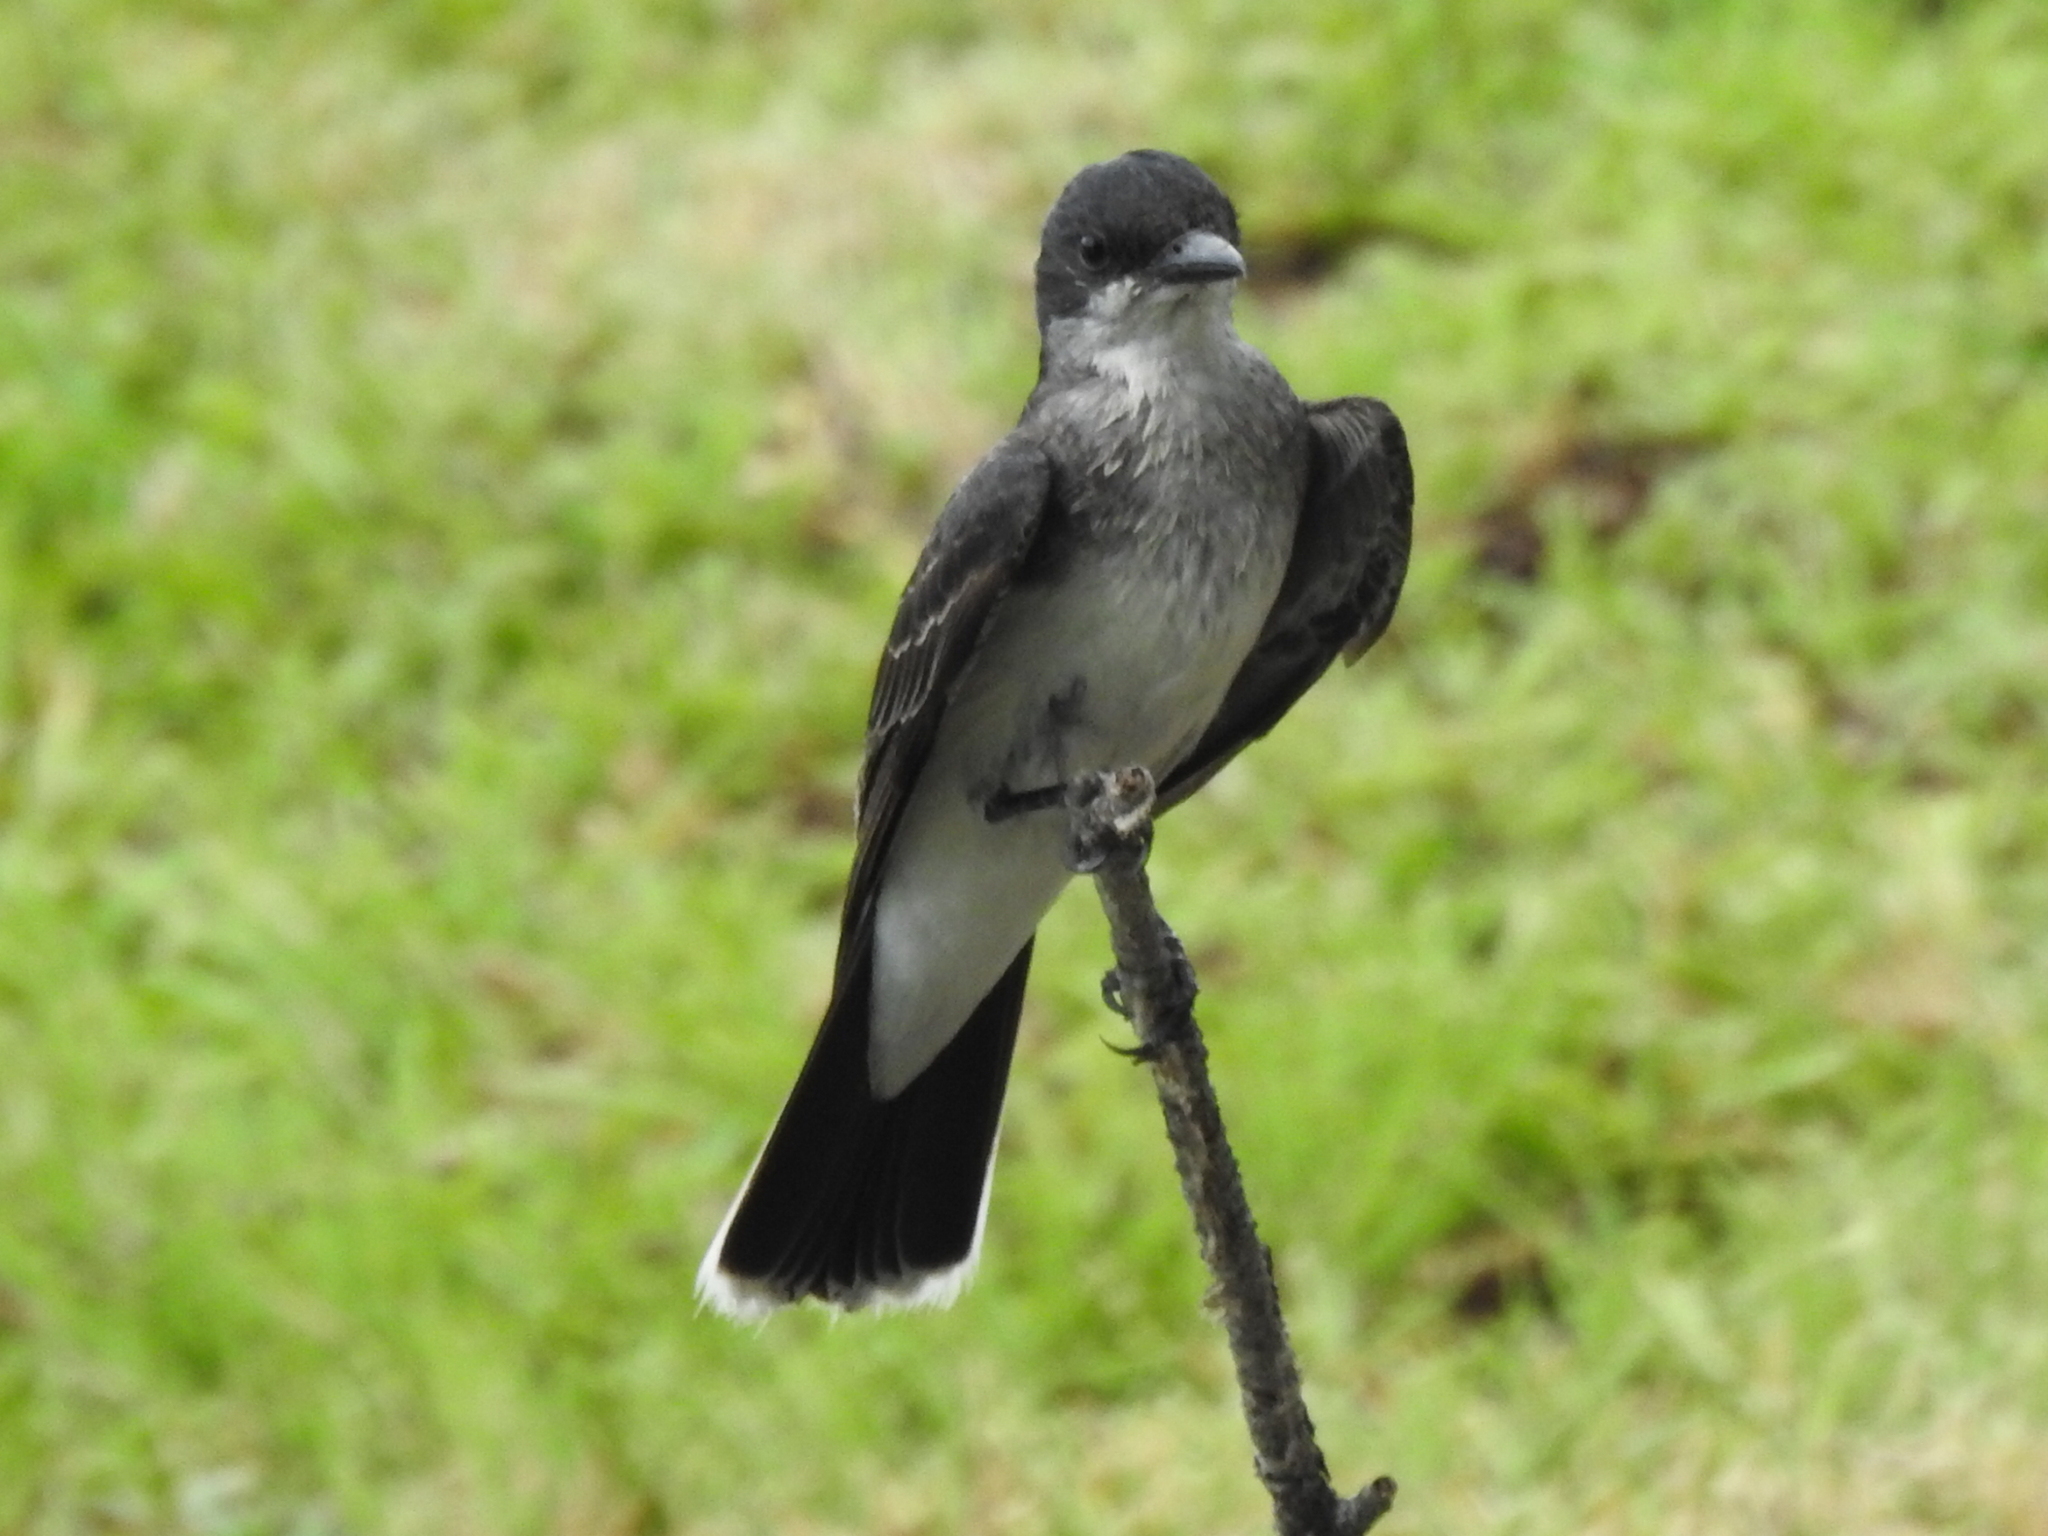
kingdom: Animalia
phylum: Chordata
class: Aves
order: Passeriformes
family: Tyrannidae
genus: Tyrannus
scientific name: Tyrannus tyrannus
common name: Eastern kingbird
